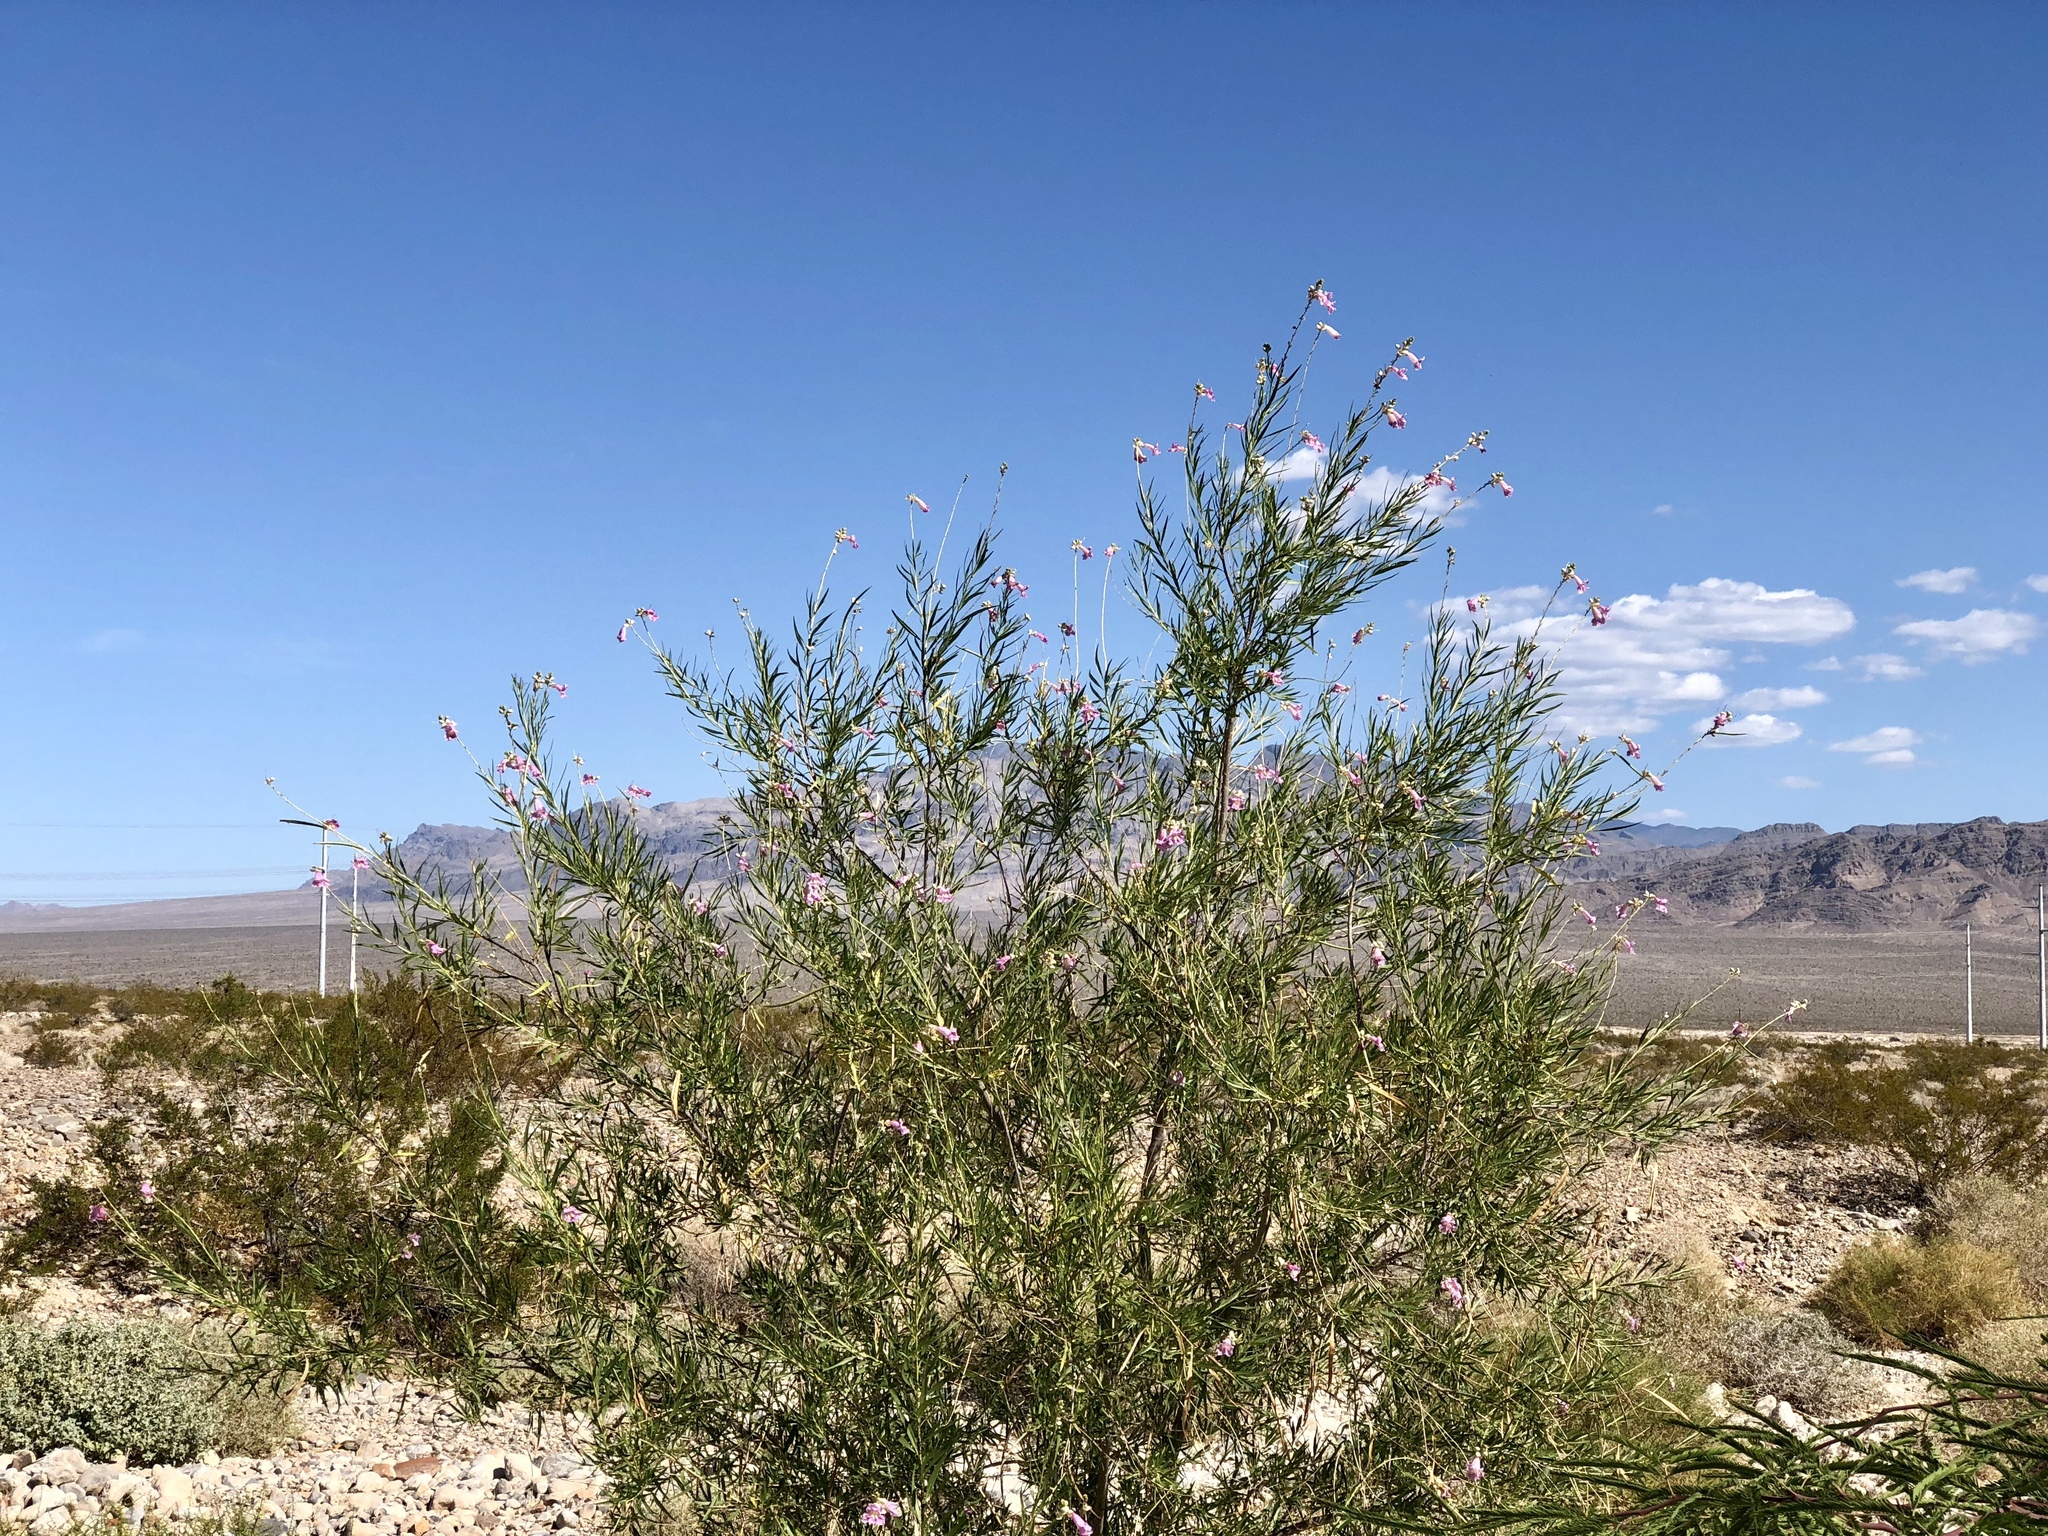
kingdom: Plantae
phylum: Tracheophyta
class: Magnoliopsida
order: Lamiales
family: Bignoniaceae
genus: Chilopsis
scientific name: Chilopsis linearis
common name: Desert-willow
